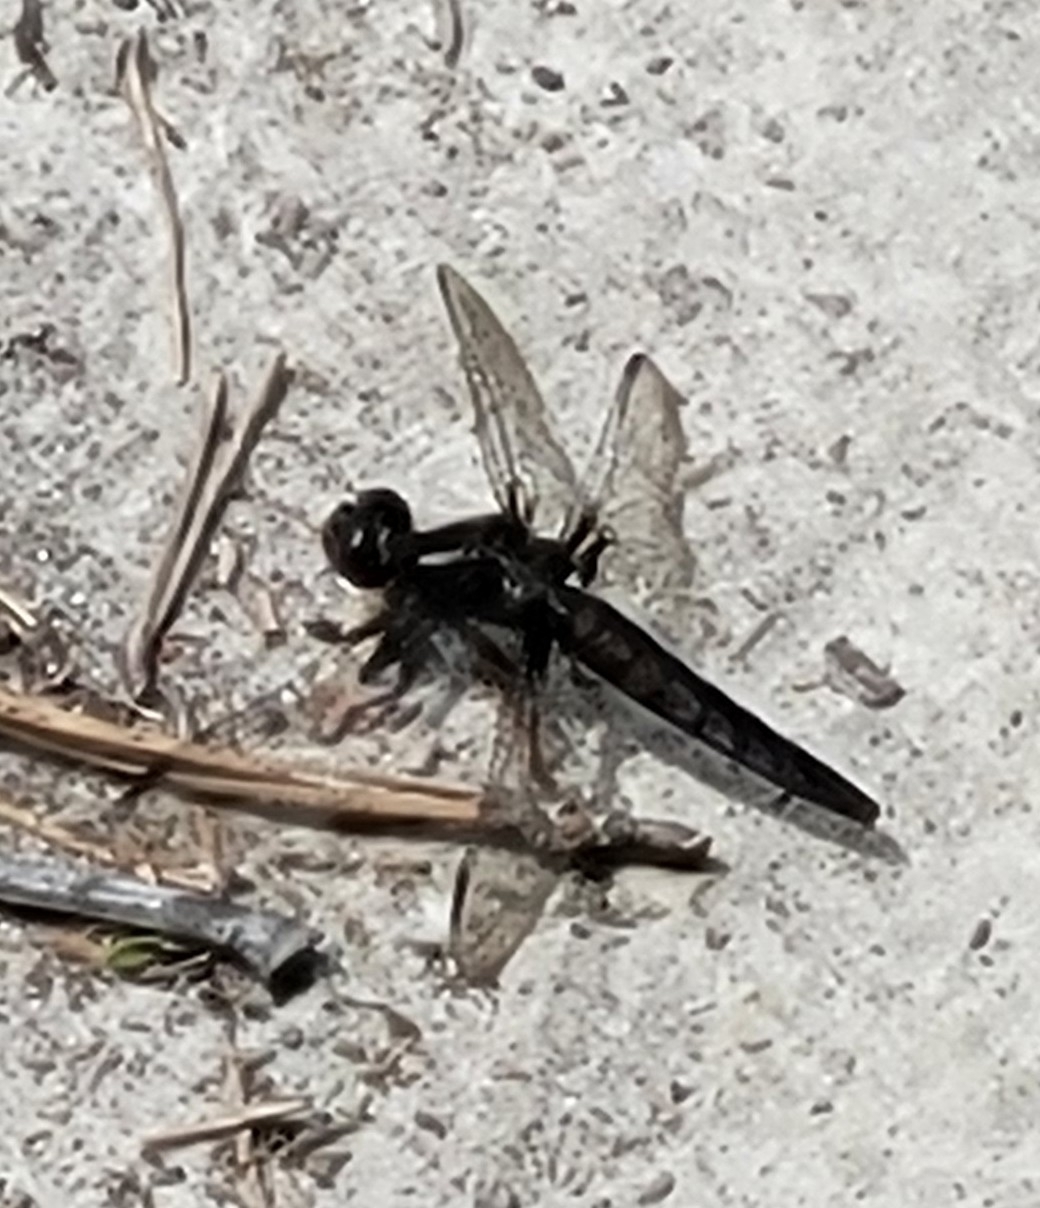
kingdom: Animalia
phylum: Arthropoda
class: Insecta
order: Odonata
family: Libellulidae
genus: Ladona
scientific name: Ladona deplanata
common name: Blue corporal
